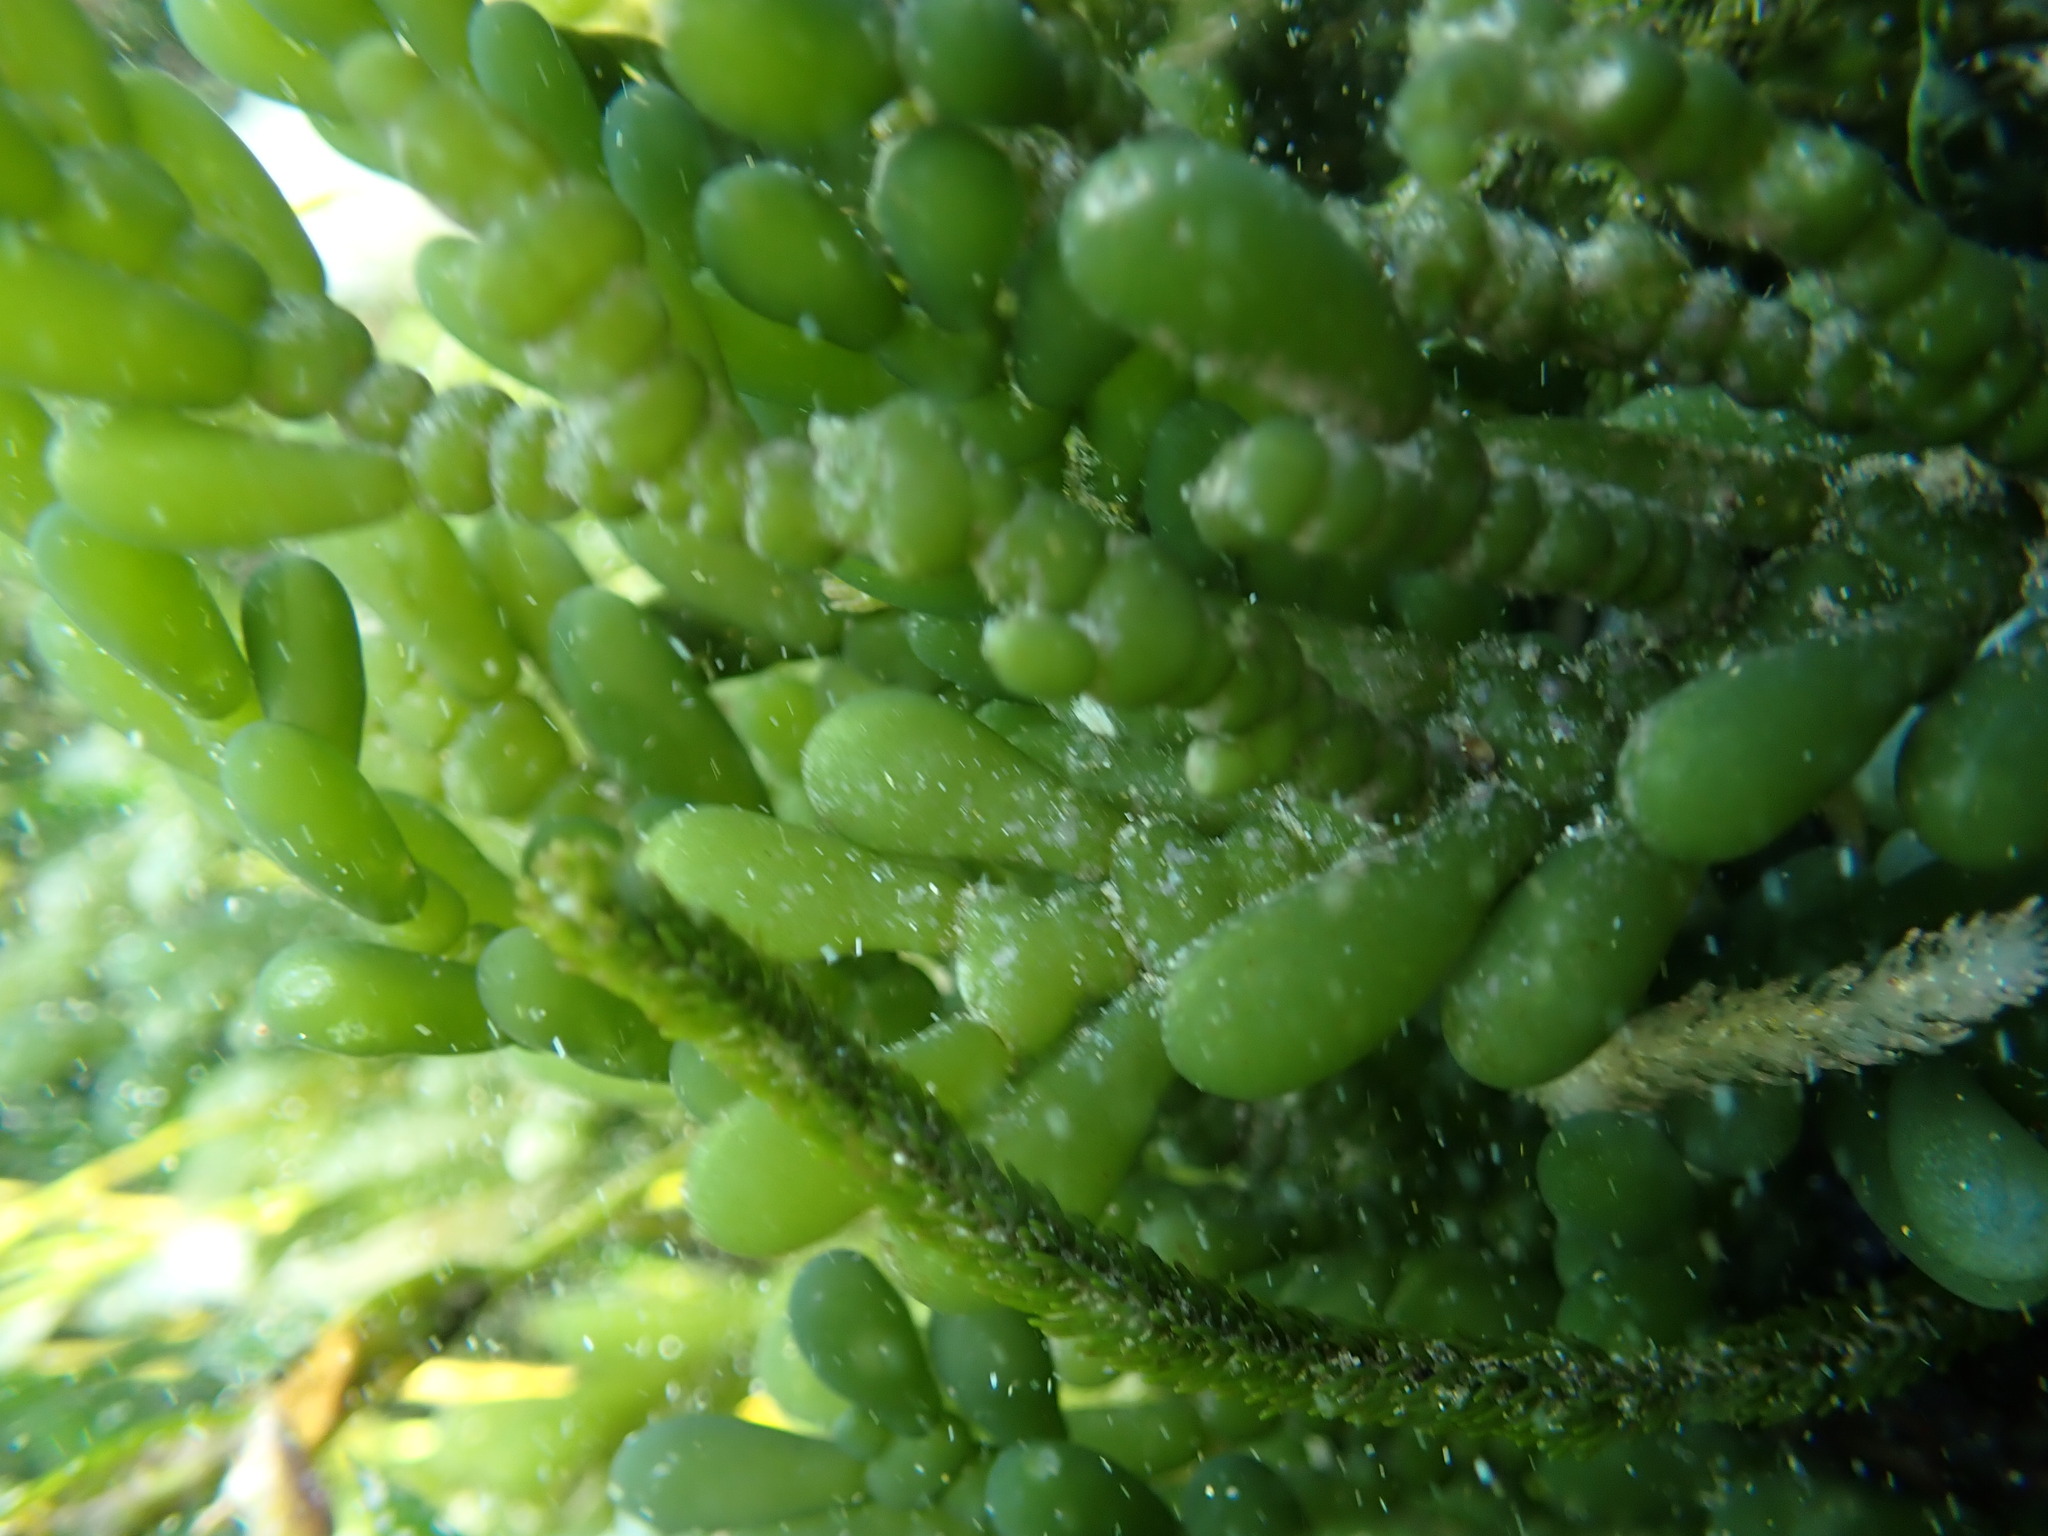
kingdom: Plantae
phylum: Chlorophyta
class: Ulvophyceae
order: Bryopsidales
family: Caulerpaceae
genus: Caulerpa
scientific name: Caulerpa cactoides
